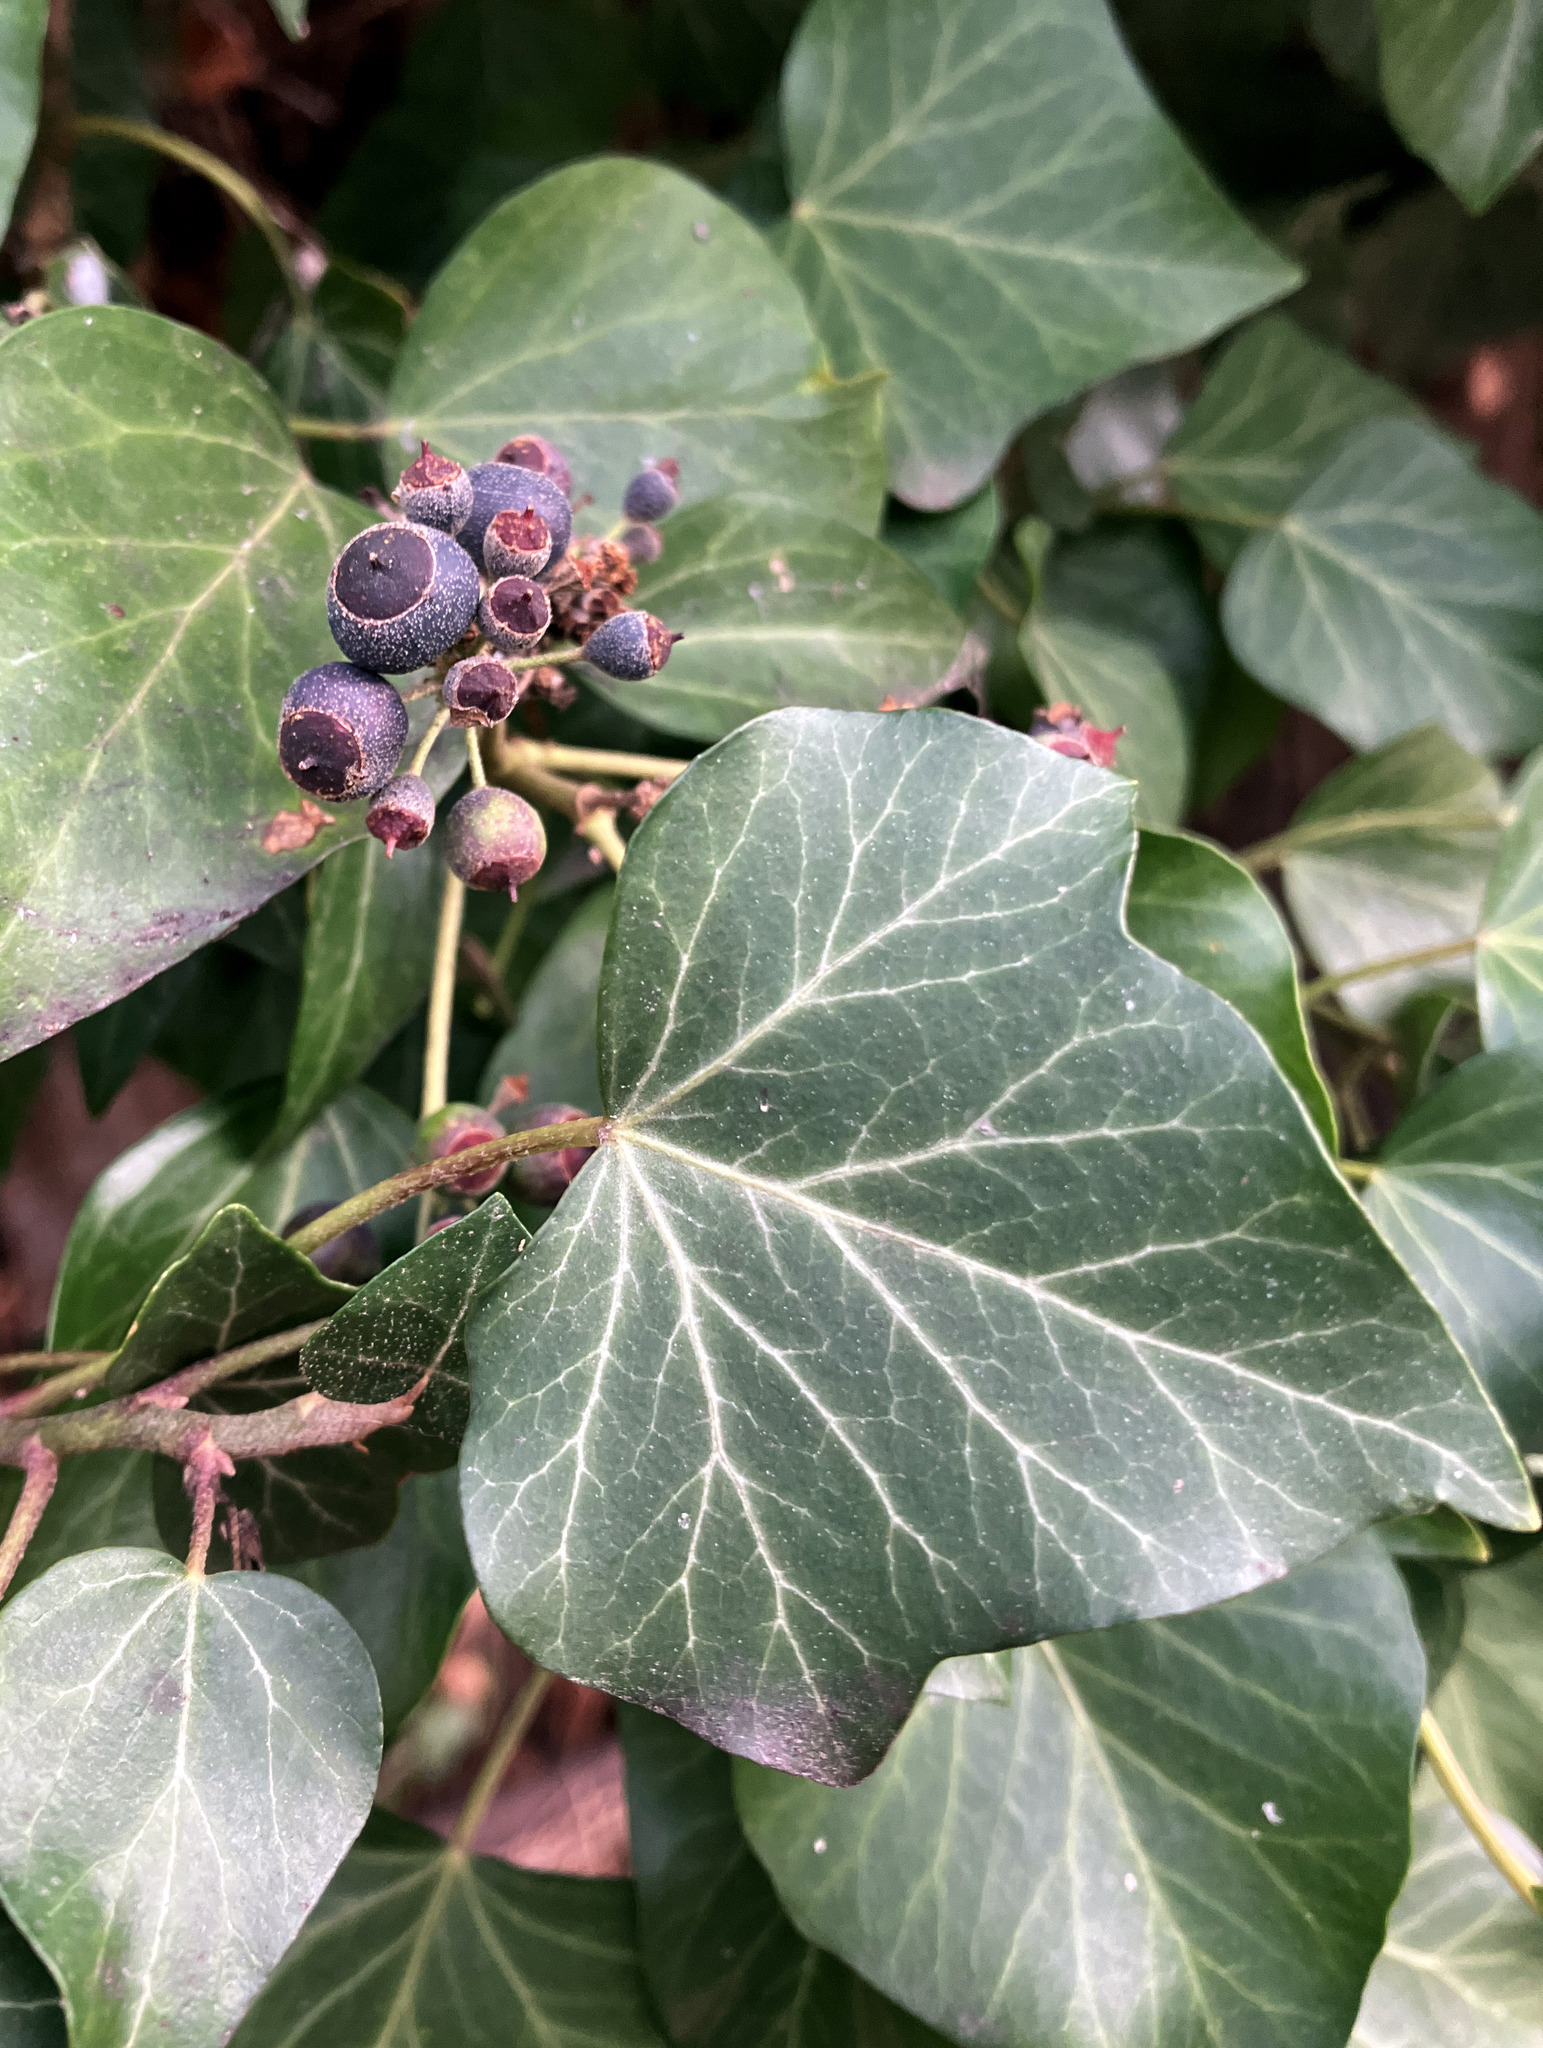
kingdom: Plantae
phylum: Tracheophyta
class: Magnoliopsida
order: Apiales
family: Araliaceae
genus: Hedera
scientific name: Hedera helix
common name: Ivy
